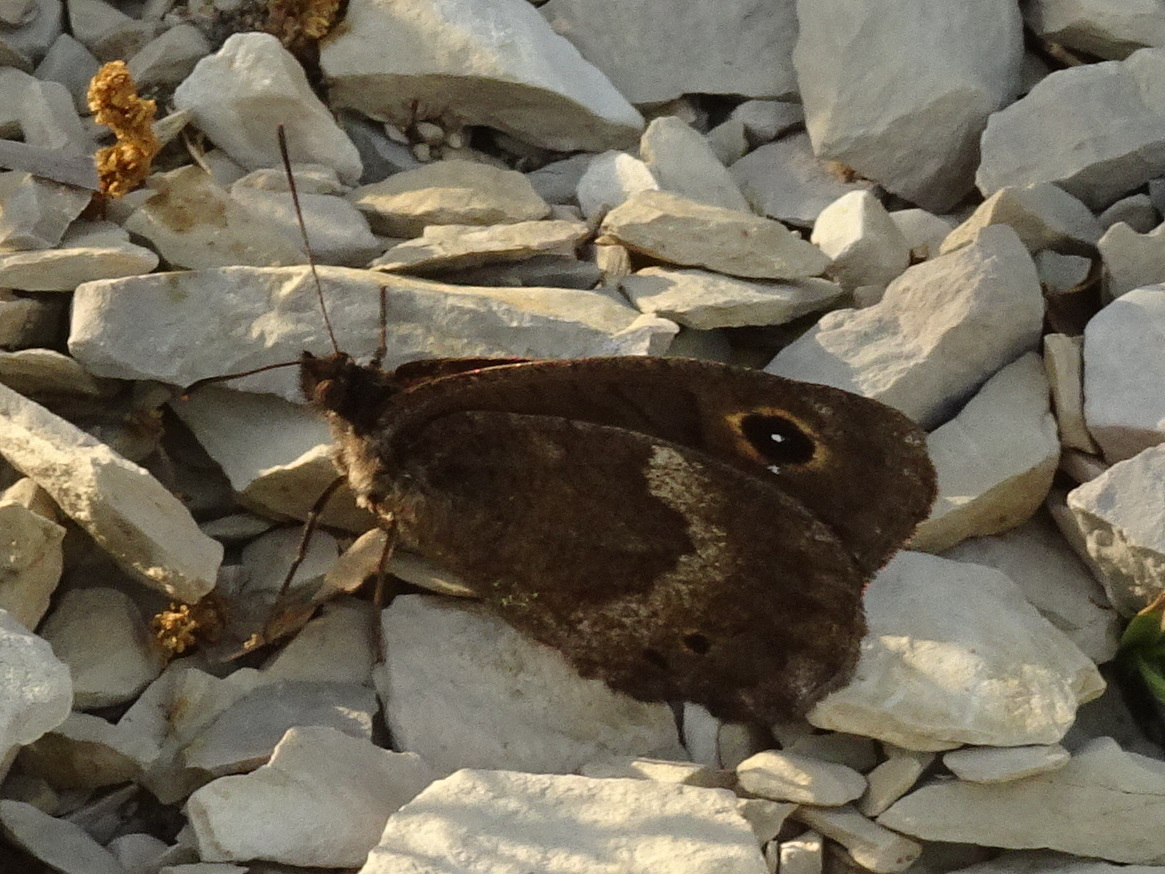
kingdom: Animalia
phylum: Arthropoda
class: Insecta
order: Lepidoptera
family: Nymphalidae
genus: Satyrus
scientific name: Satyrus ferula
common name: Great sooty satyr
